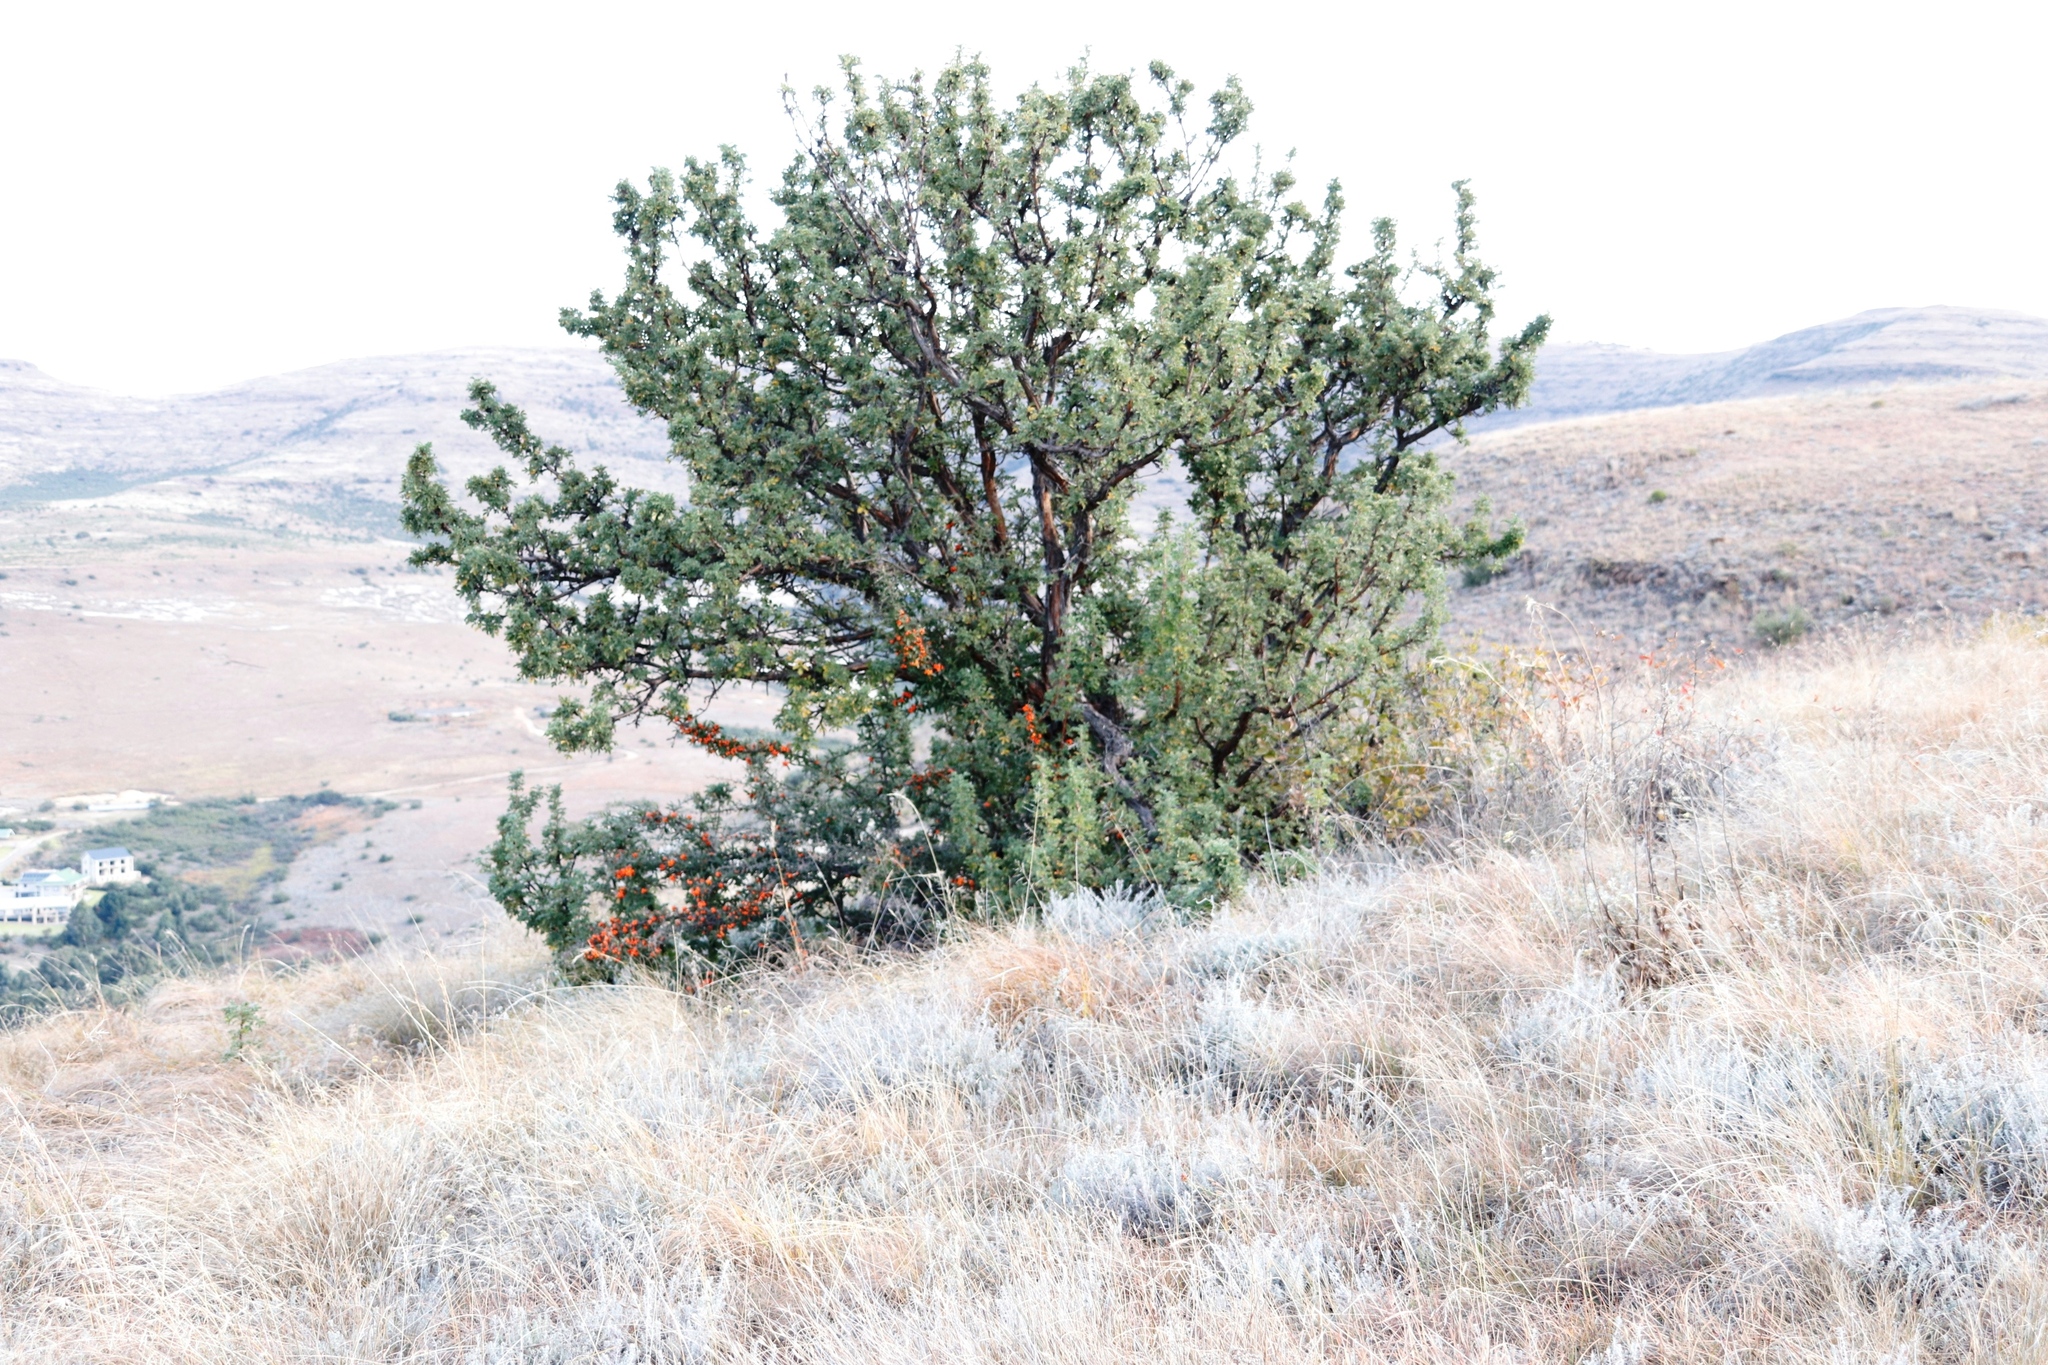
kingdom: Plantae
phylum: Tracheophyta
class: Magnoliopsida
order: Rosales
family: Rosaceae
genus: Leucosidea
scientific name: Leucosidea sericea
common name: Oldwood
